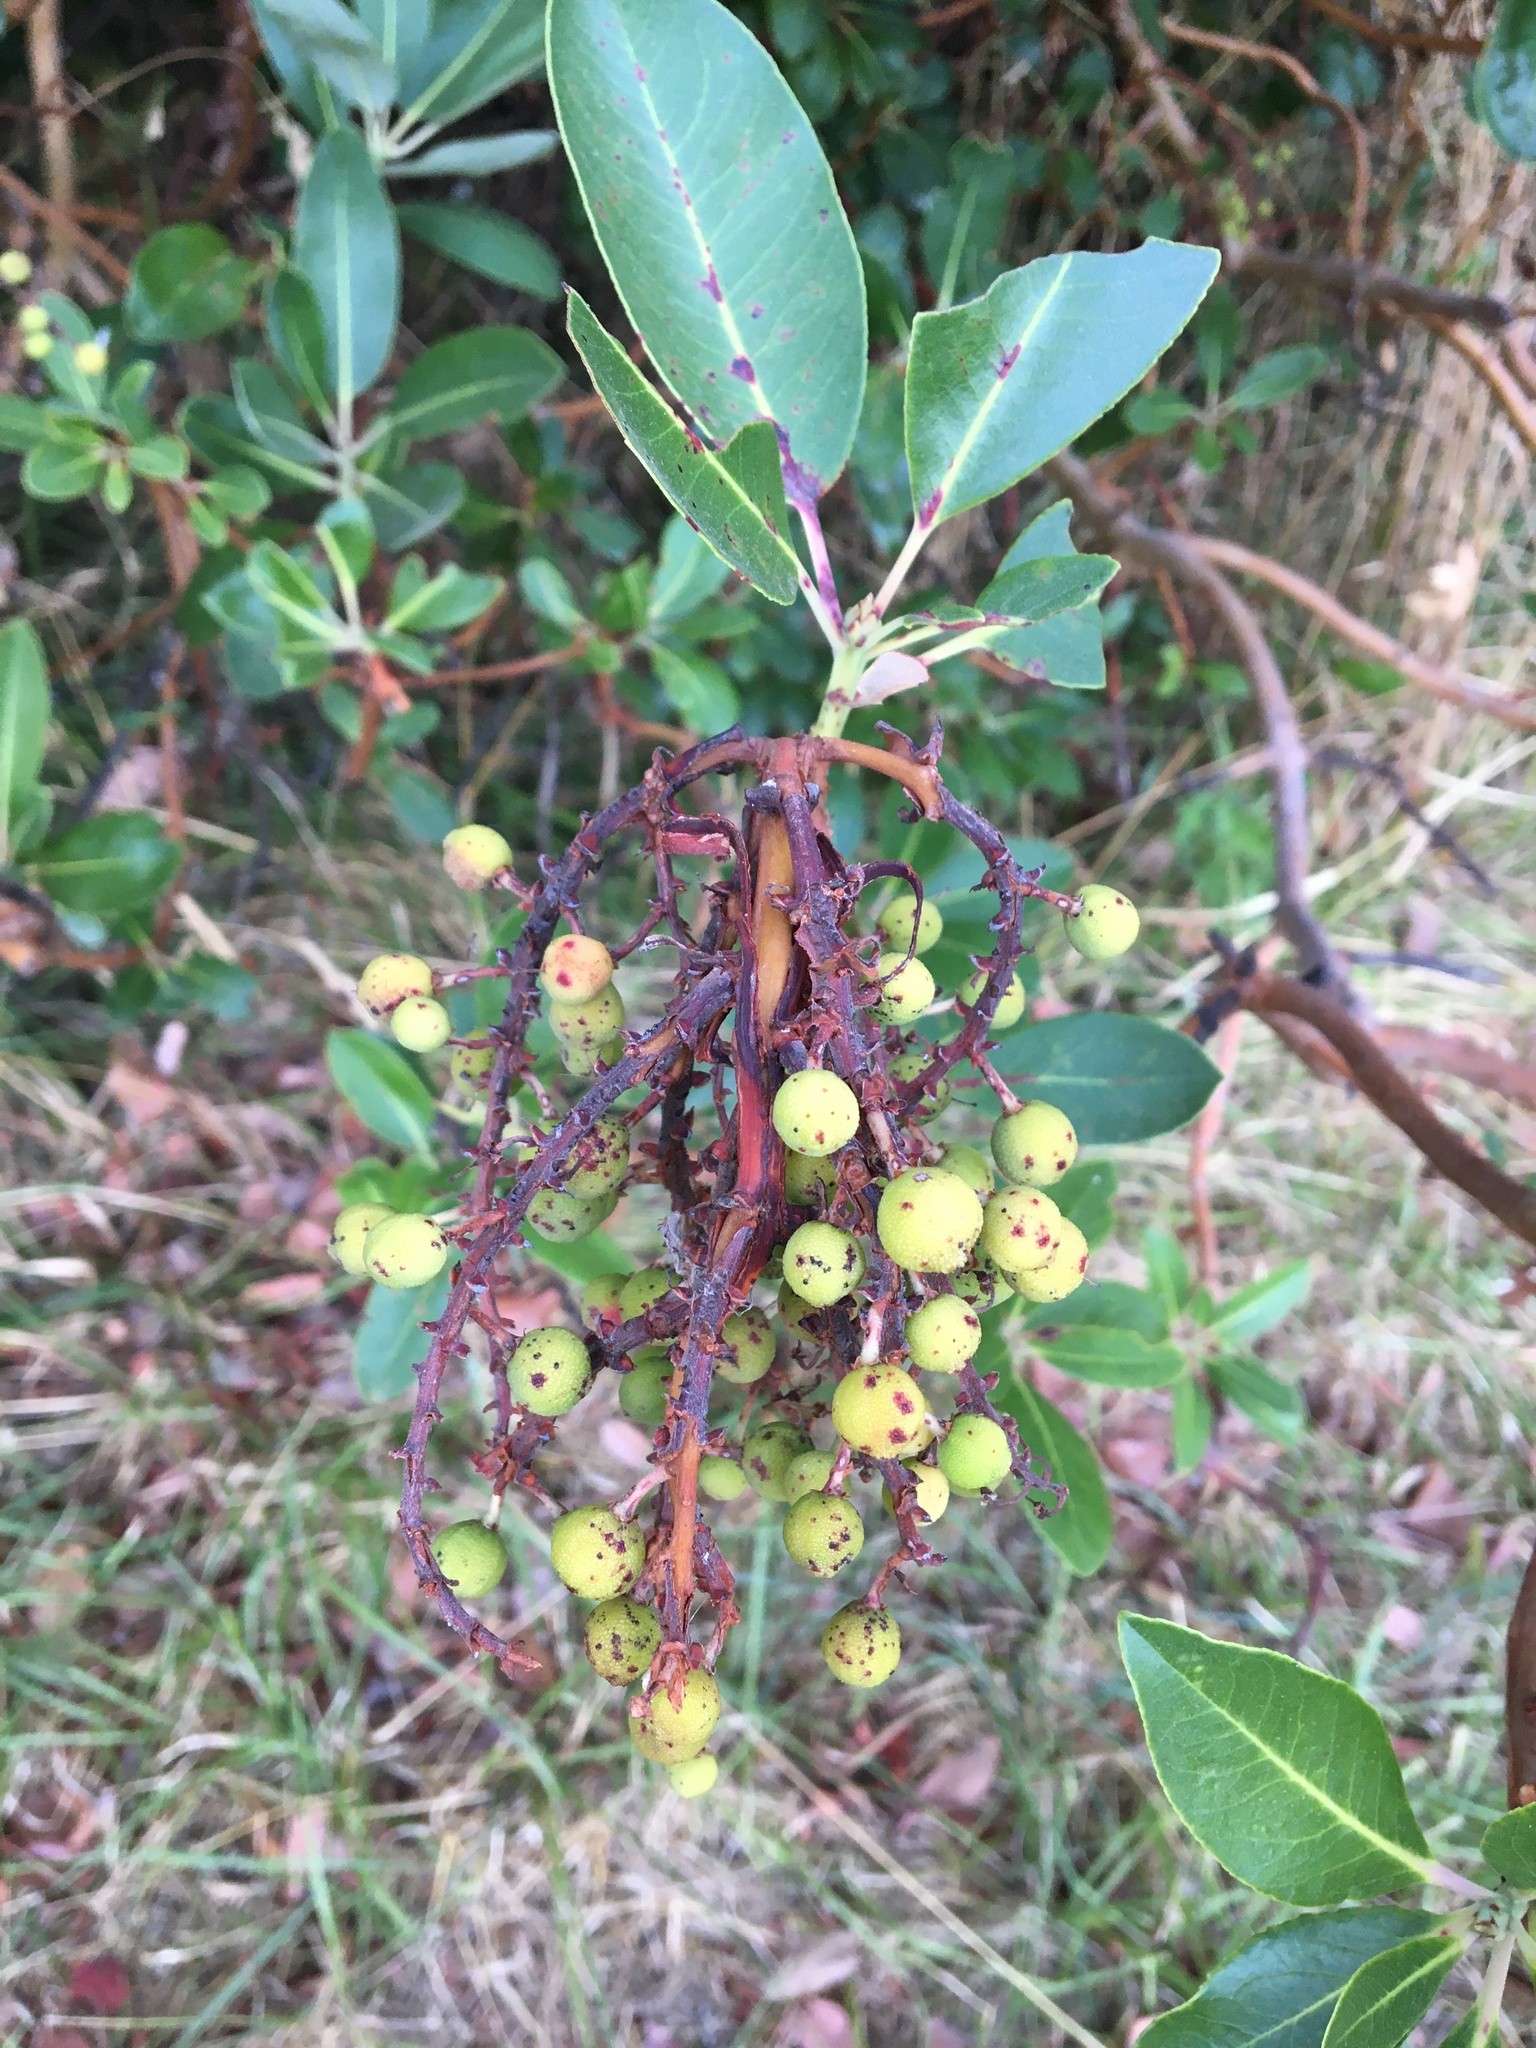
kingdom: Plantae
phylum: Tracheophyta
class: Magnoliopsida
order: Ericales
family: Ericaceae
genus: Arbutus
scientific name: Arbutus menziesii
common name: Pacific madrone
